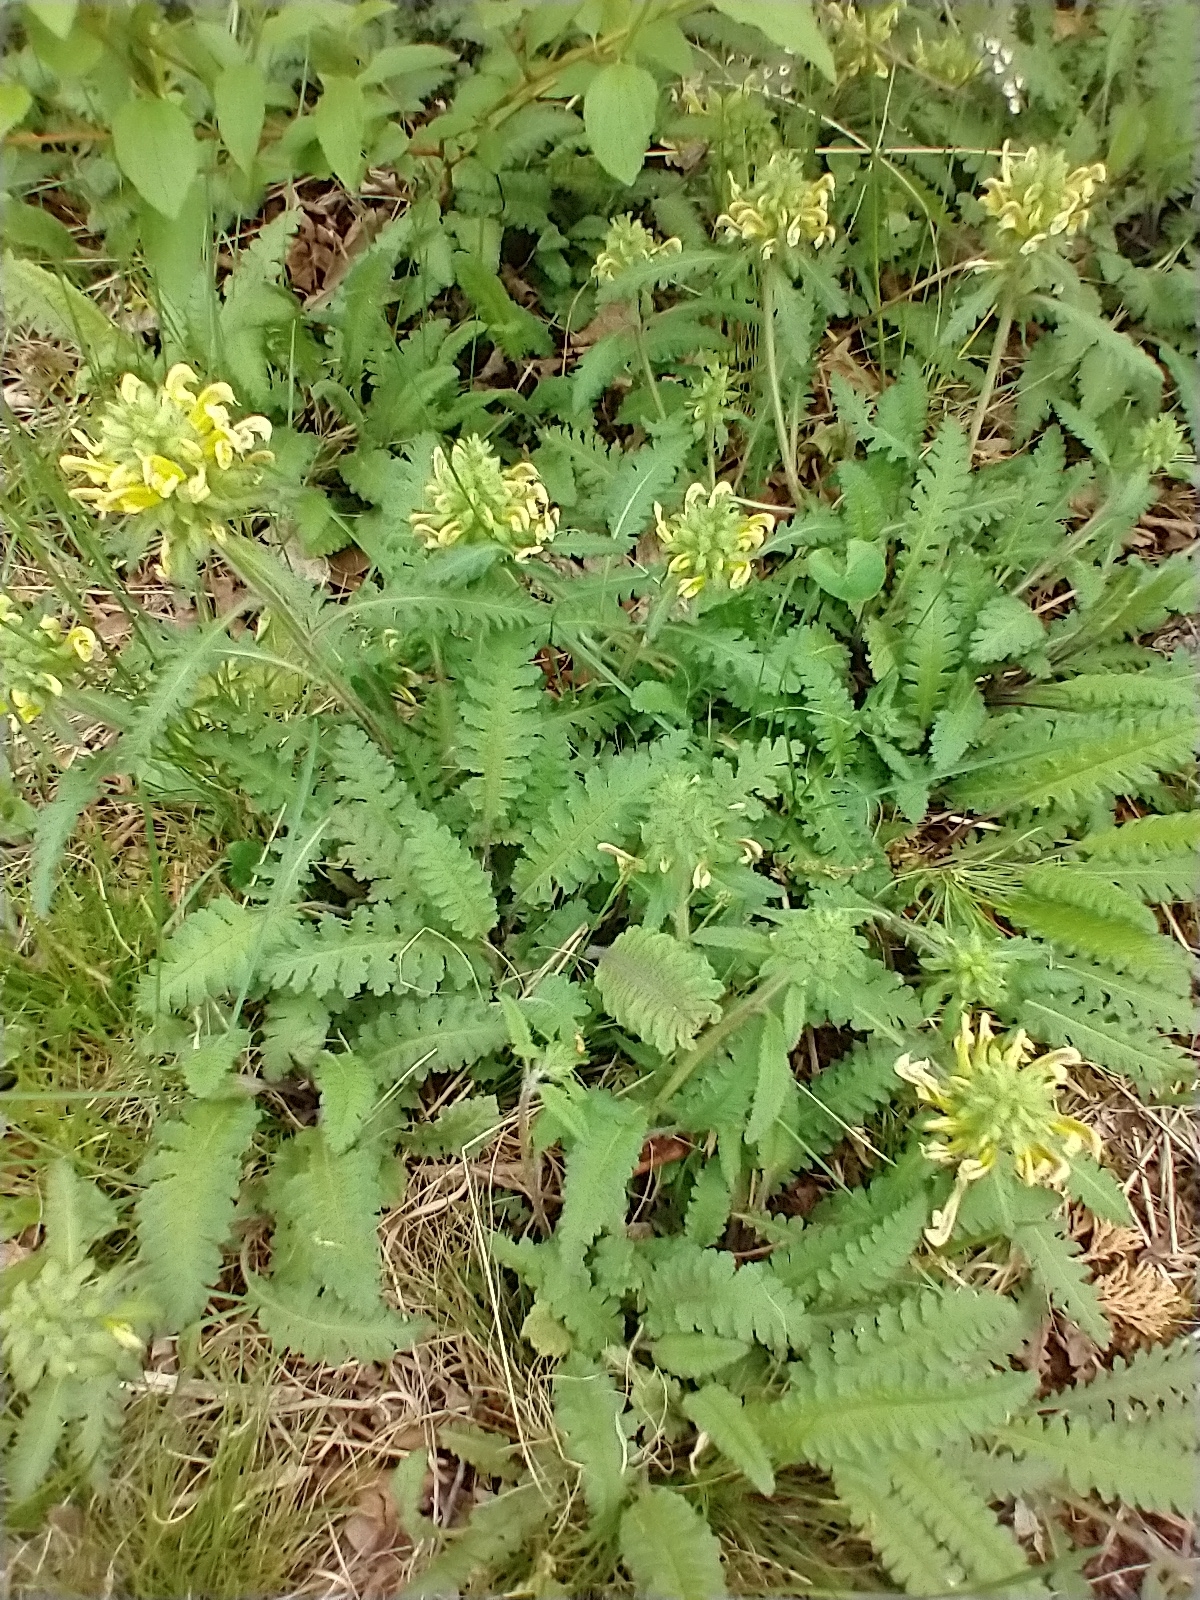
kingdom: Plantae
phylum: Tracheophyta
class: Magnoliopsida
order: Lamiales
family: Orobanchaceae
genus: Pedicularis
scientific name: Pedicularis canadensis
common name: Early lousewort
